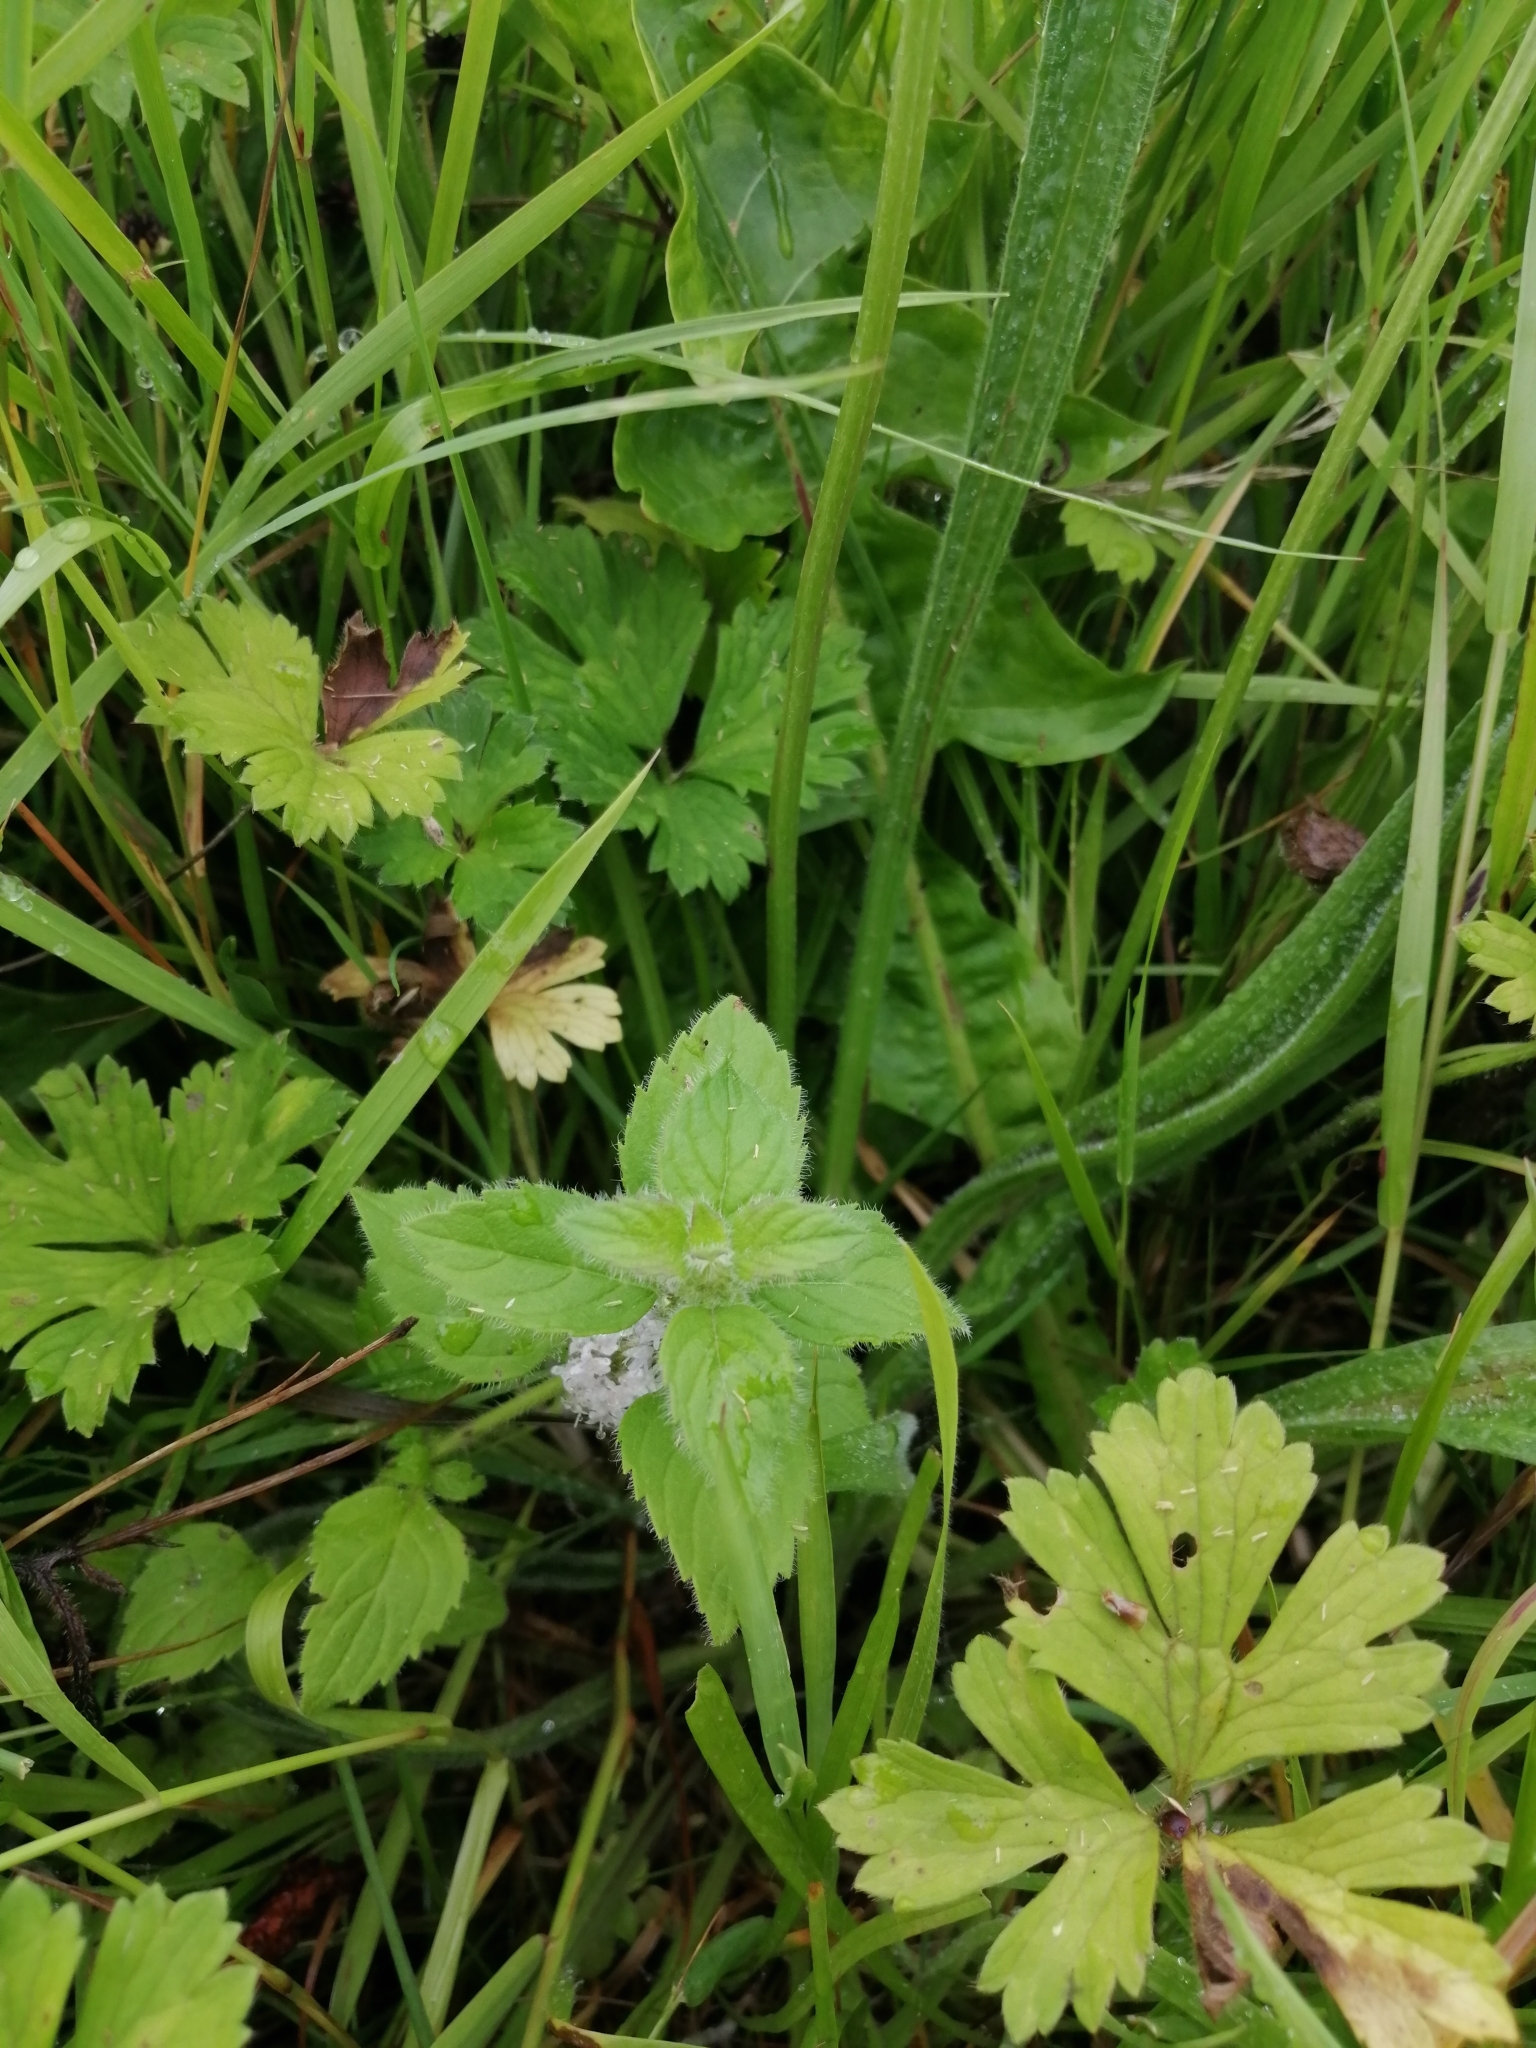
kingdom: Plantae
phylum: Tracheophyta
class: Magnoliopsida
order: Lamiales
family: Lamiaceae
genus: Mentha
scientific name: Mentha arvensis
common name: Corn mint
